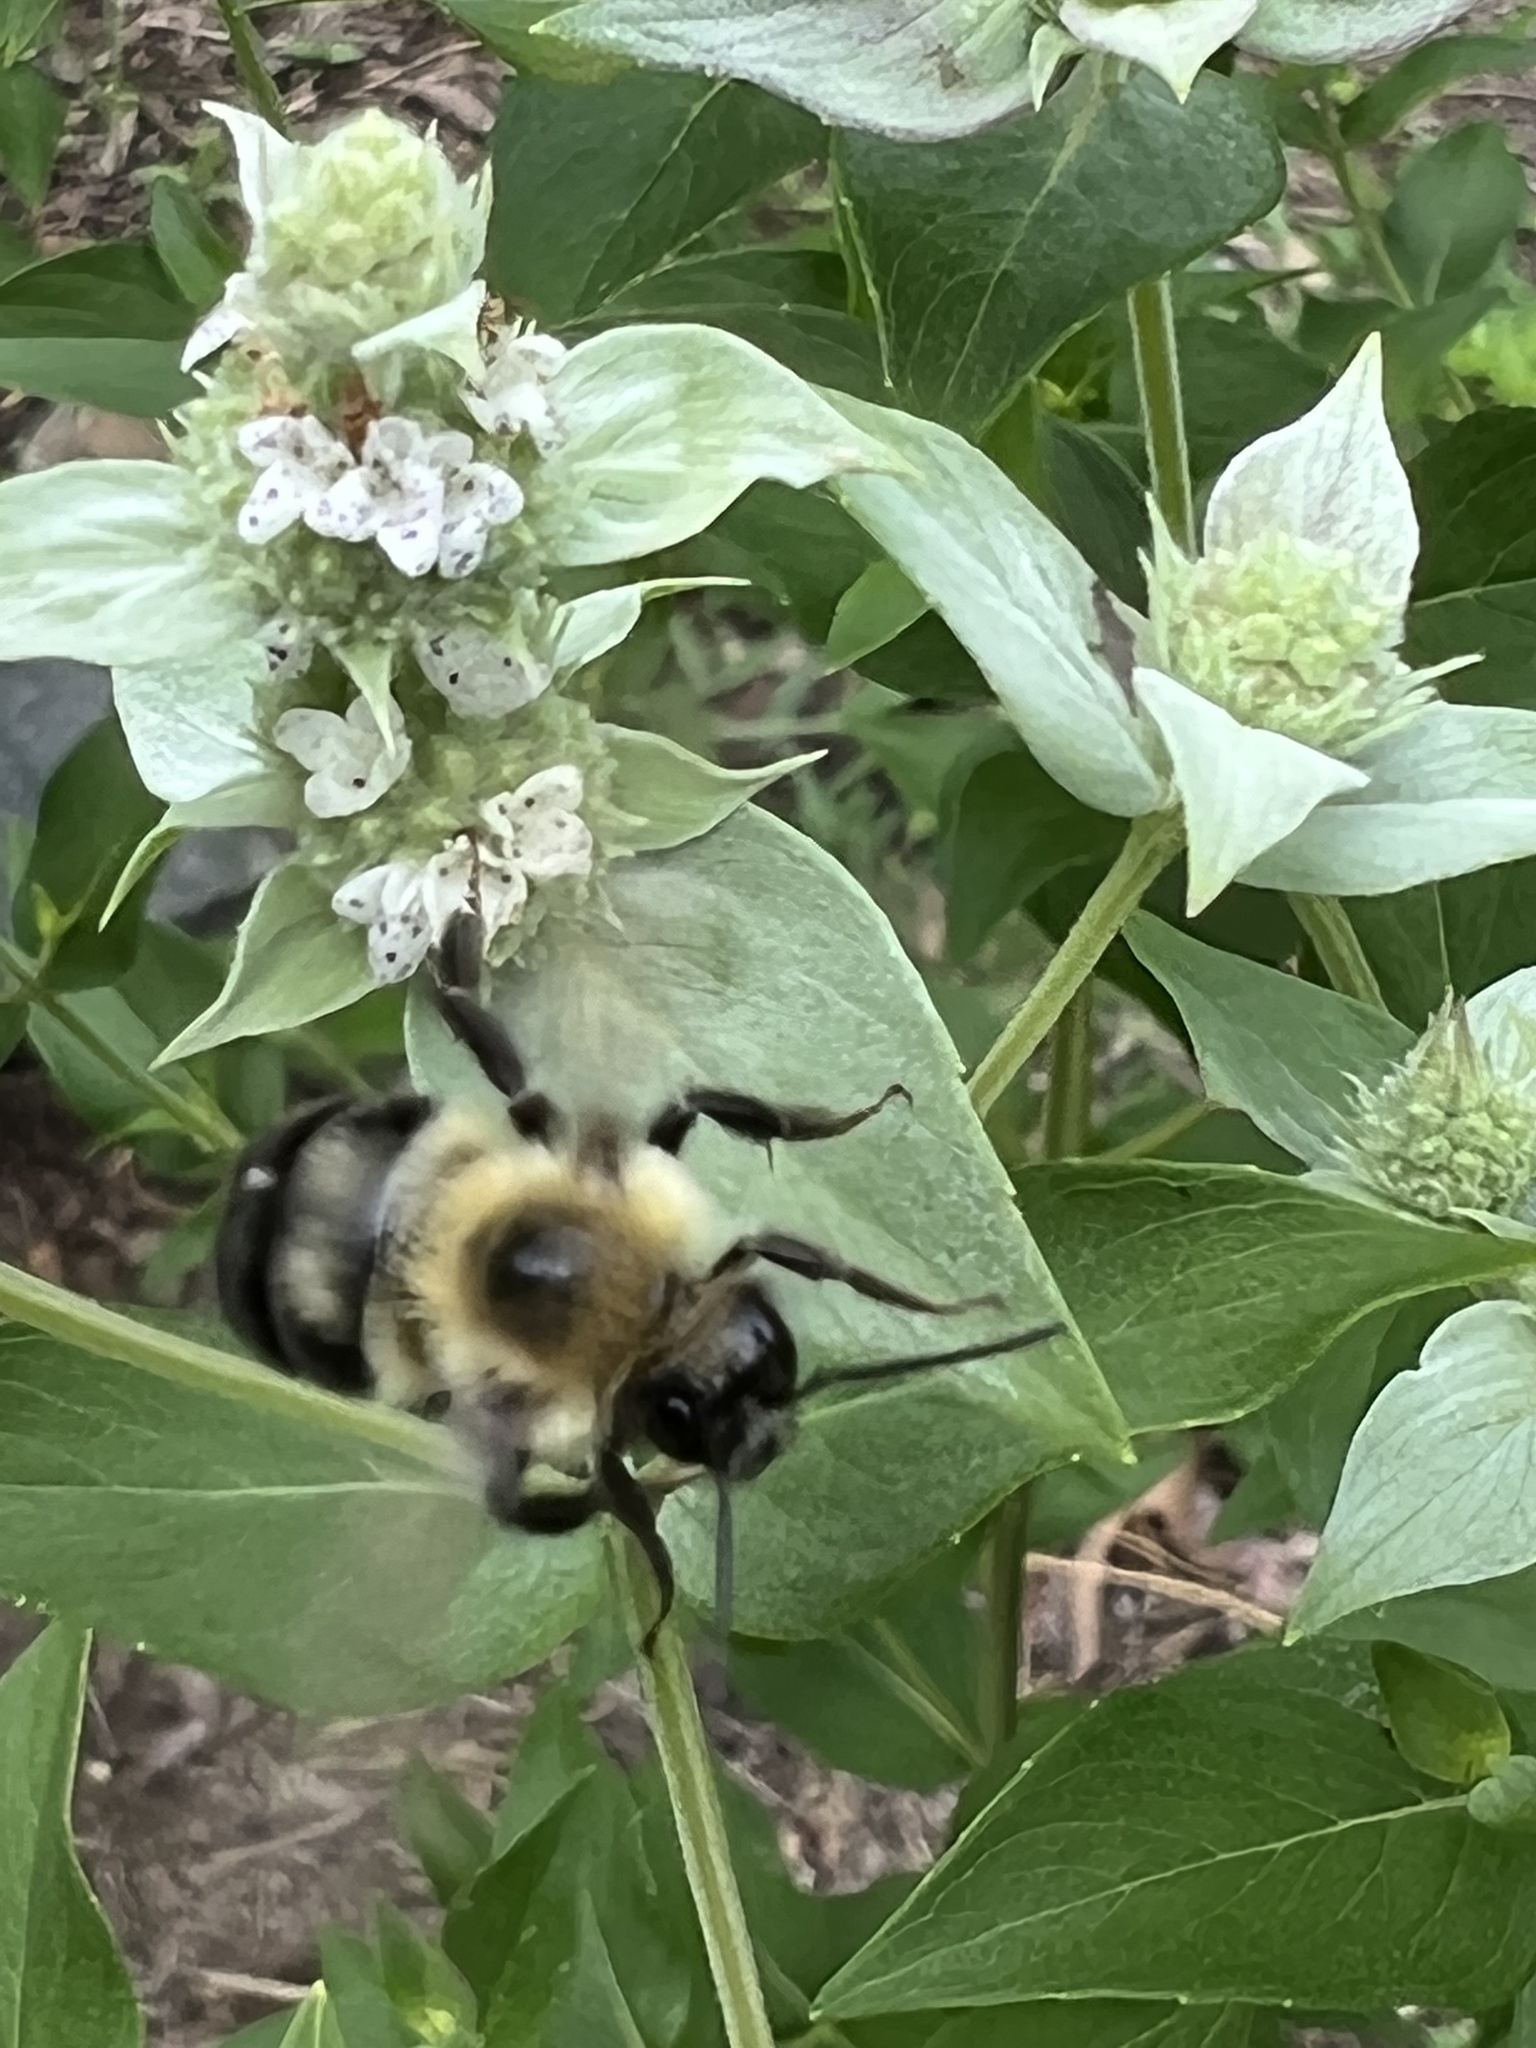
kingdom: Animalia
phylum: Arthropoda
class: Insecta
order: Hymenoptera
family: Apidae
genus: Bombus
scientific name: Bombus bimaculatus
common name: Two-spotted bumble bee
